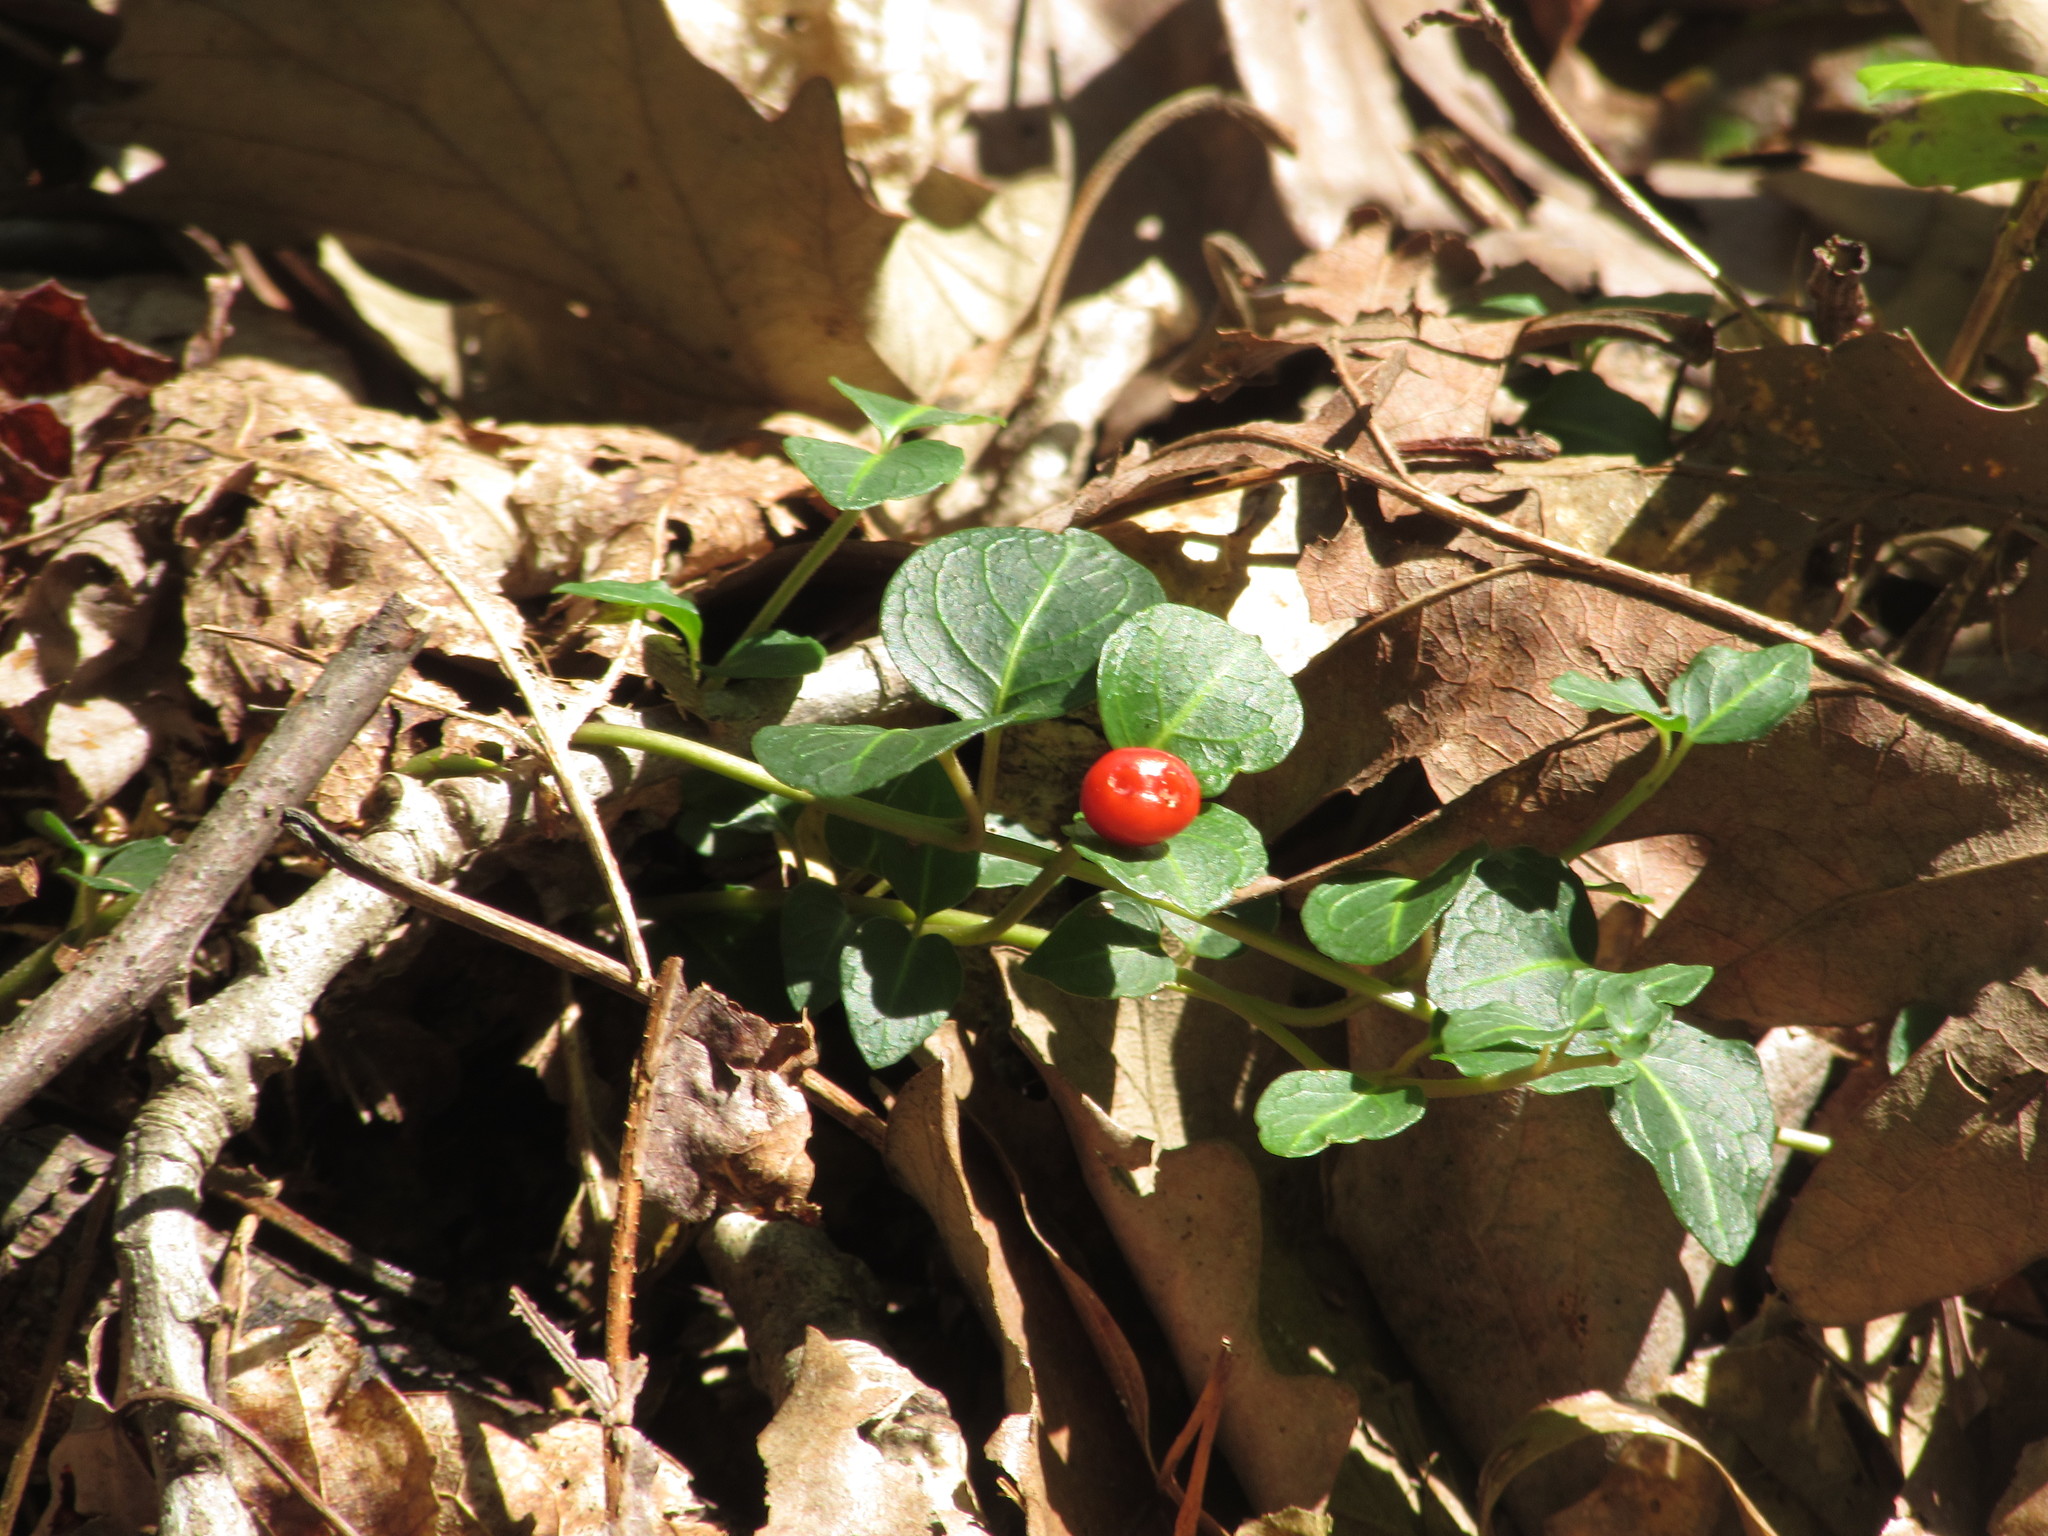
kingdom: Plantae
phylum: Tracheophyta
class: Magnoliopsida
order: Gentianales
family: Rubiaceae
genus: Mitchella
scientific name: Mitchella repens
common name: Partridge-berry
